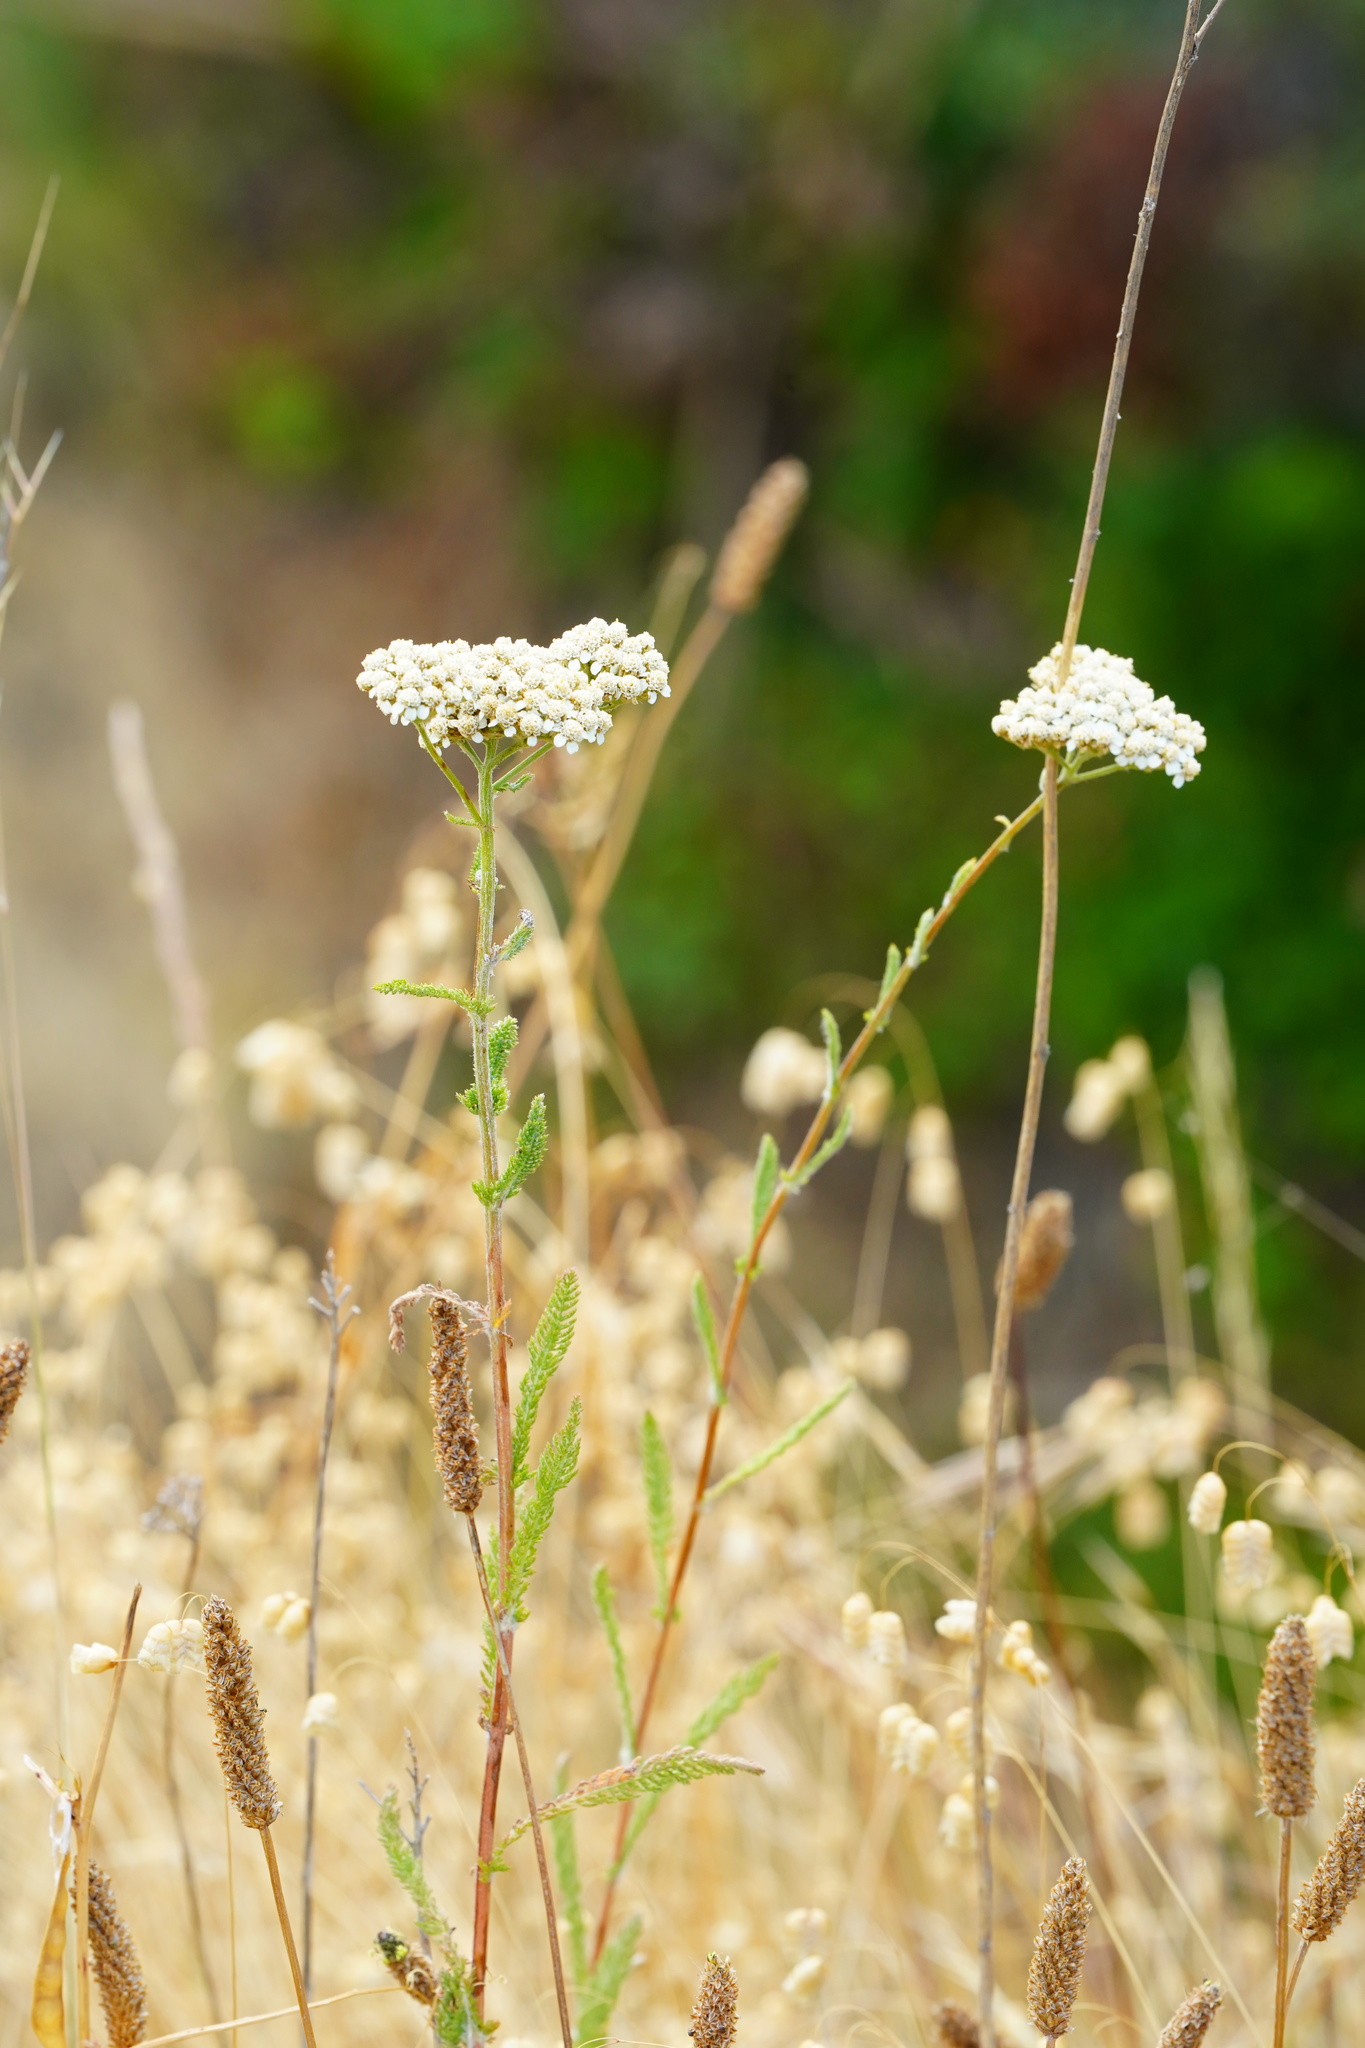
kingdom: Plantae
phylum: Tracheophyta
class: Magnoliopsida
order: Asterales
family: Asteraceae
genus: Achillea
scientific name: Achillea millefolium
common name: Yarrow
